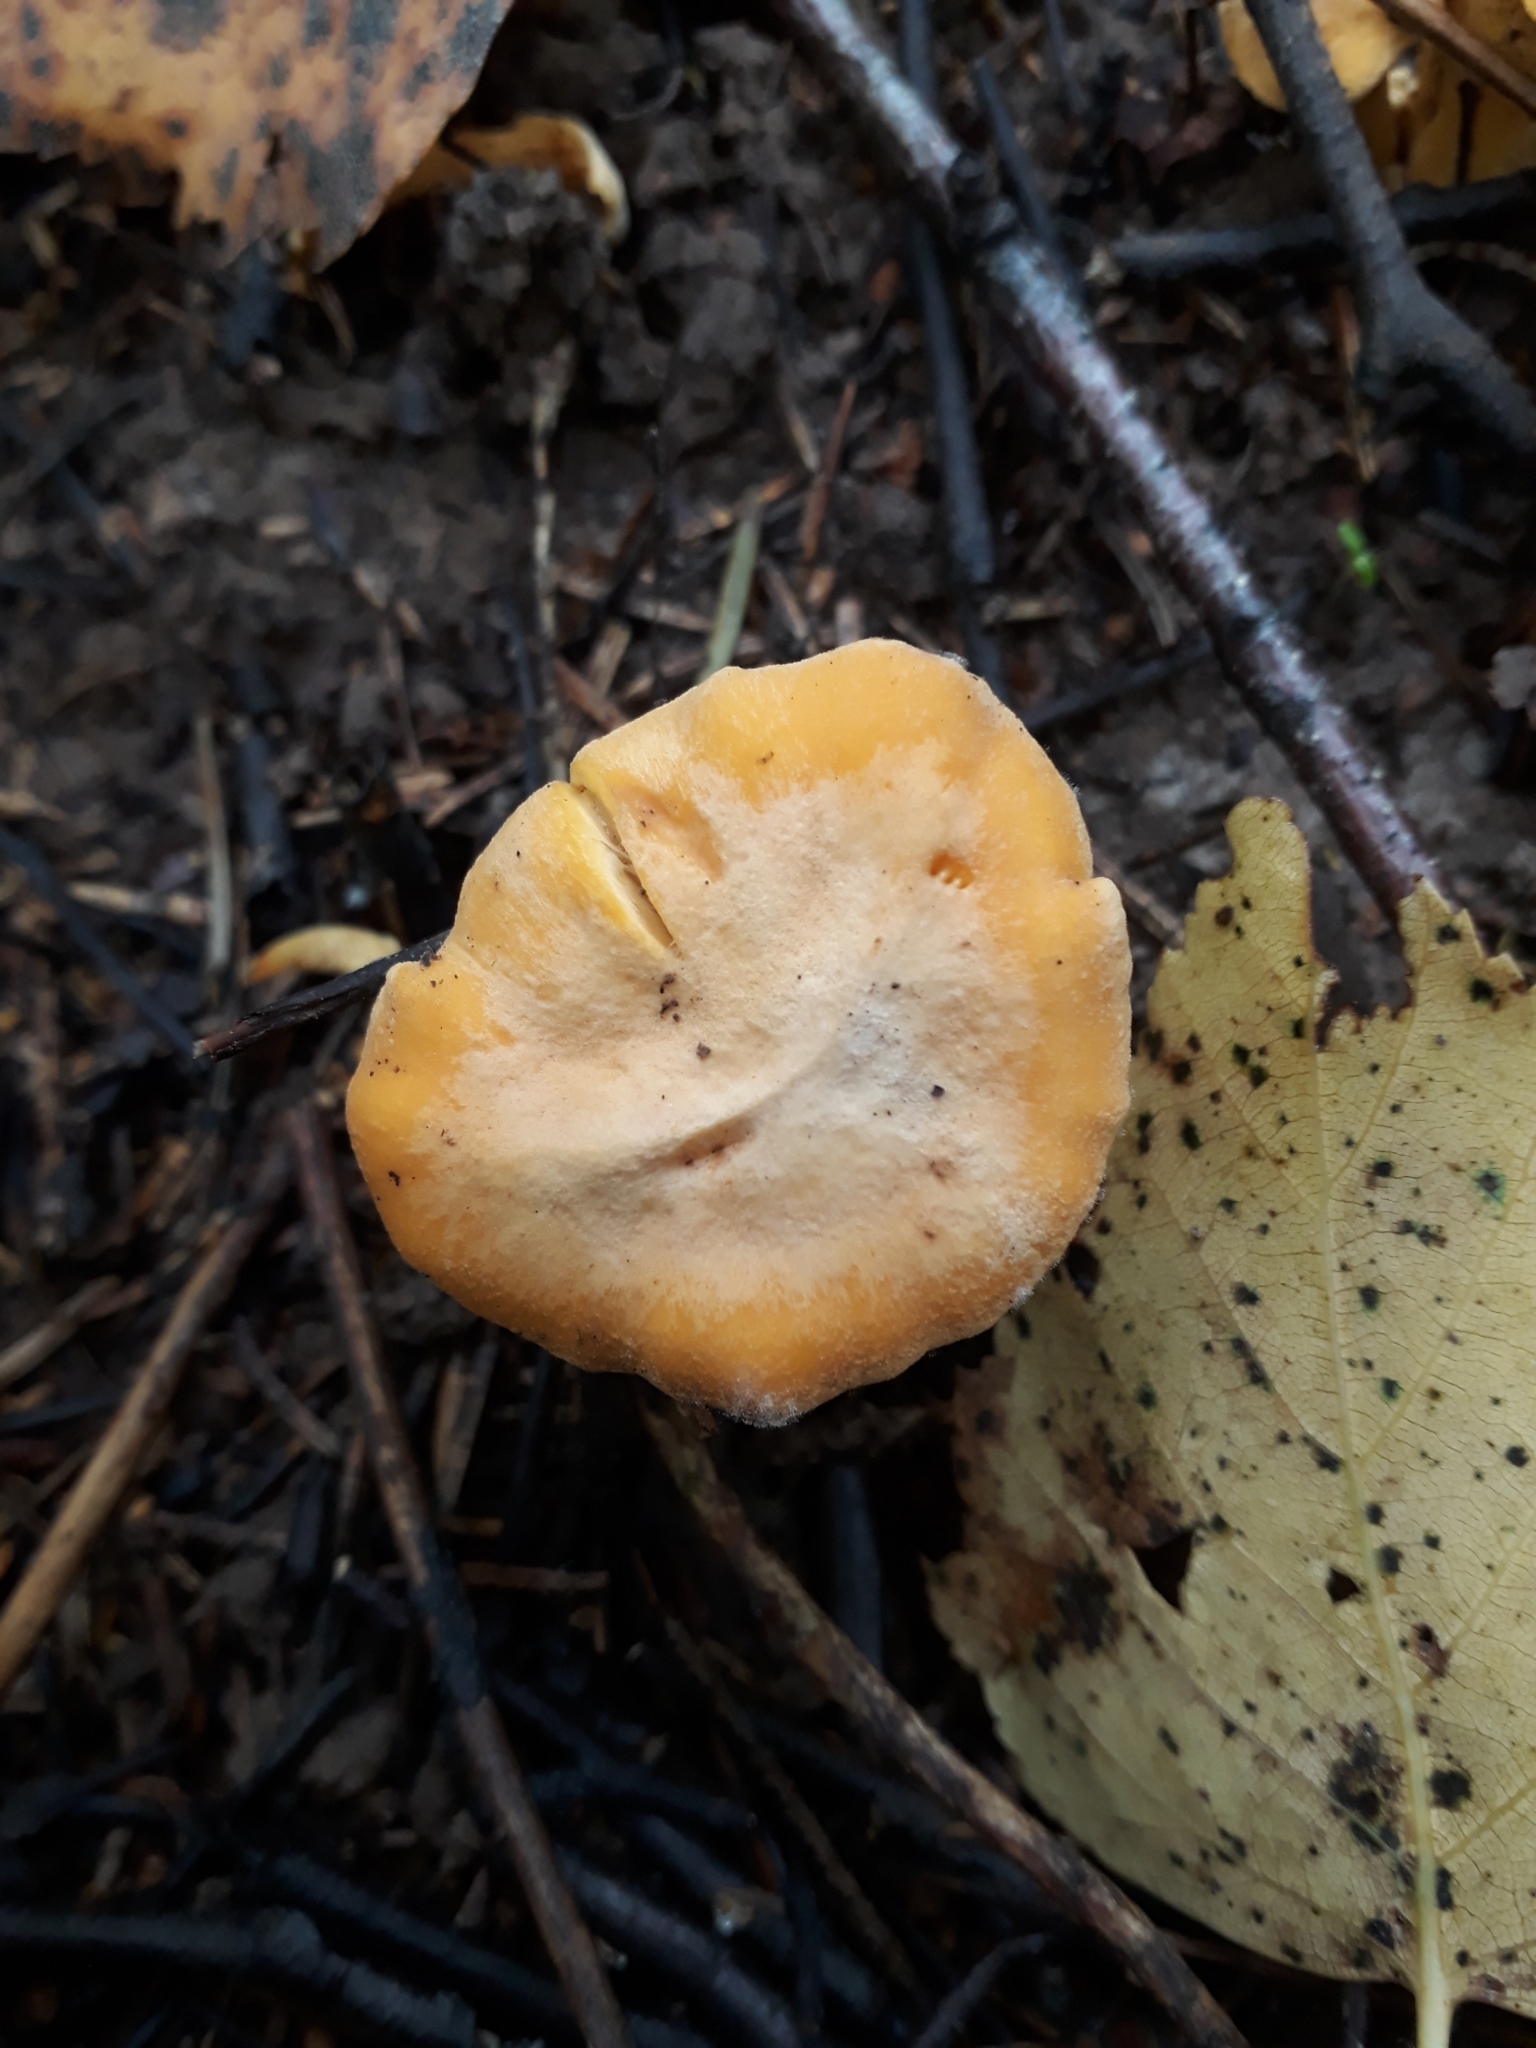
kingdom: Fungi
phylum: Basidiomycota
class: Agaricomycetes
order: Cantharellales
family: Hydnaceae
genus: Cantharellus
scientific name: Cantharellus cibarius
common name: Chanterelle
